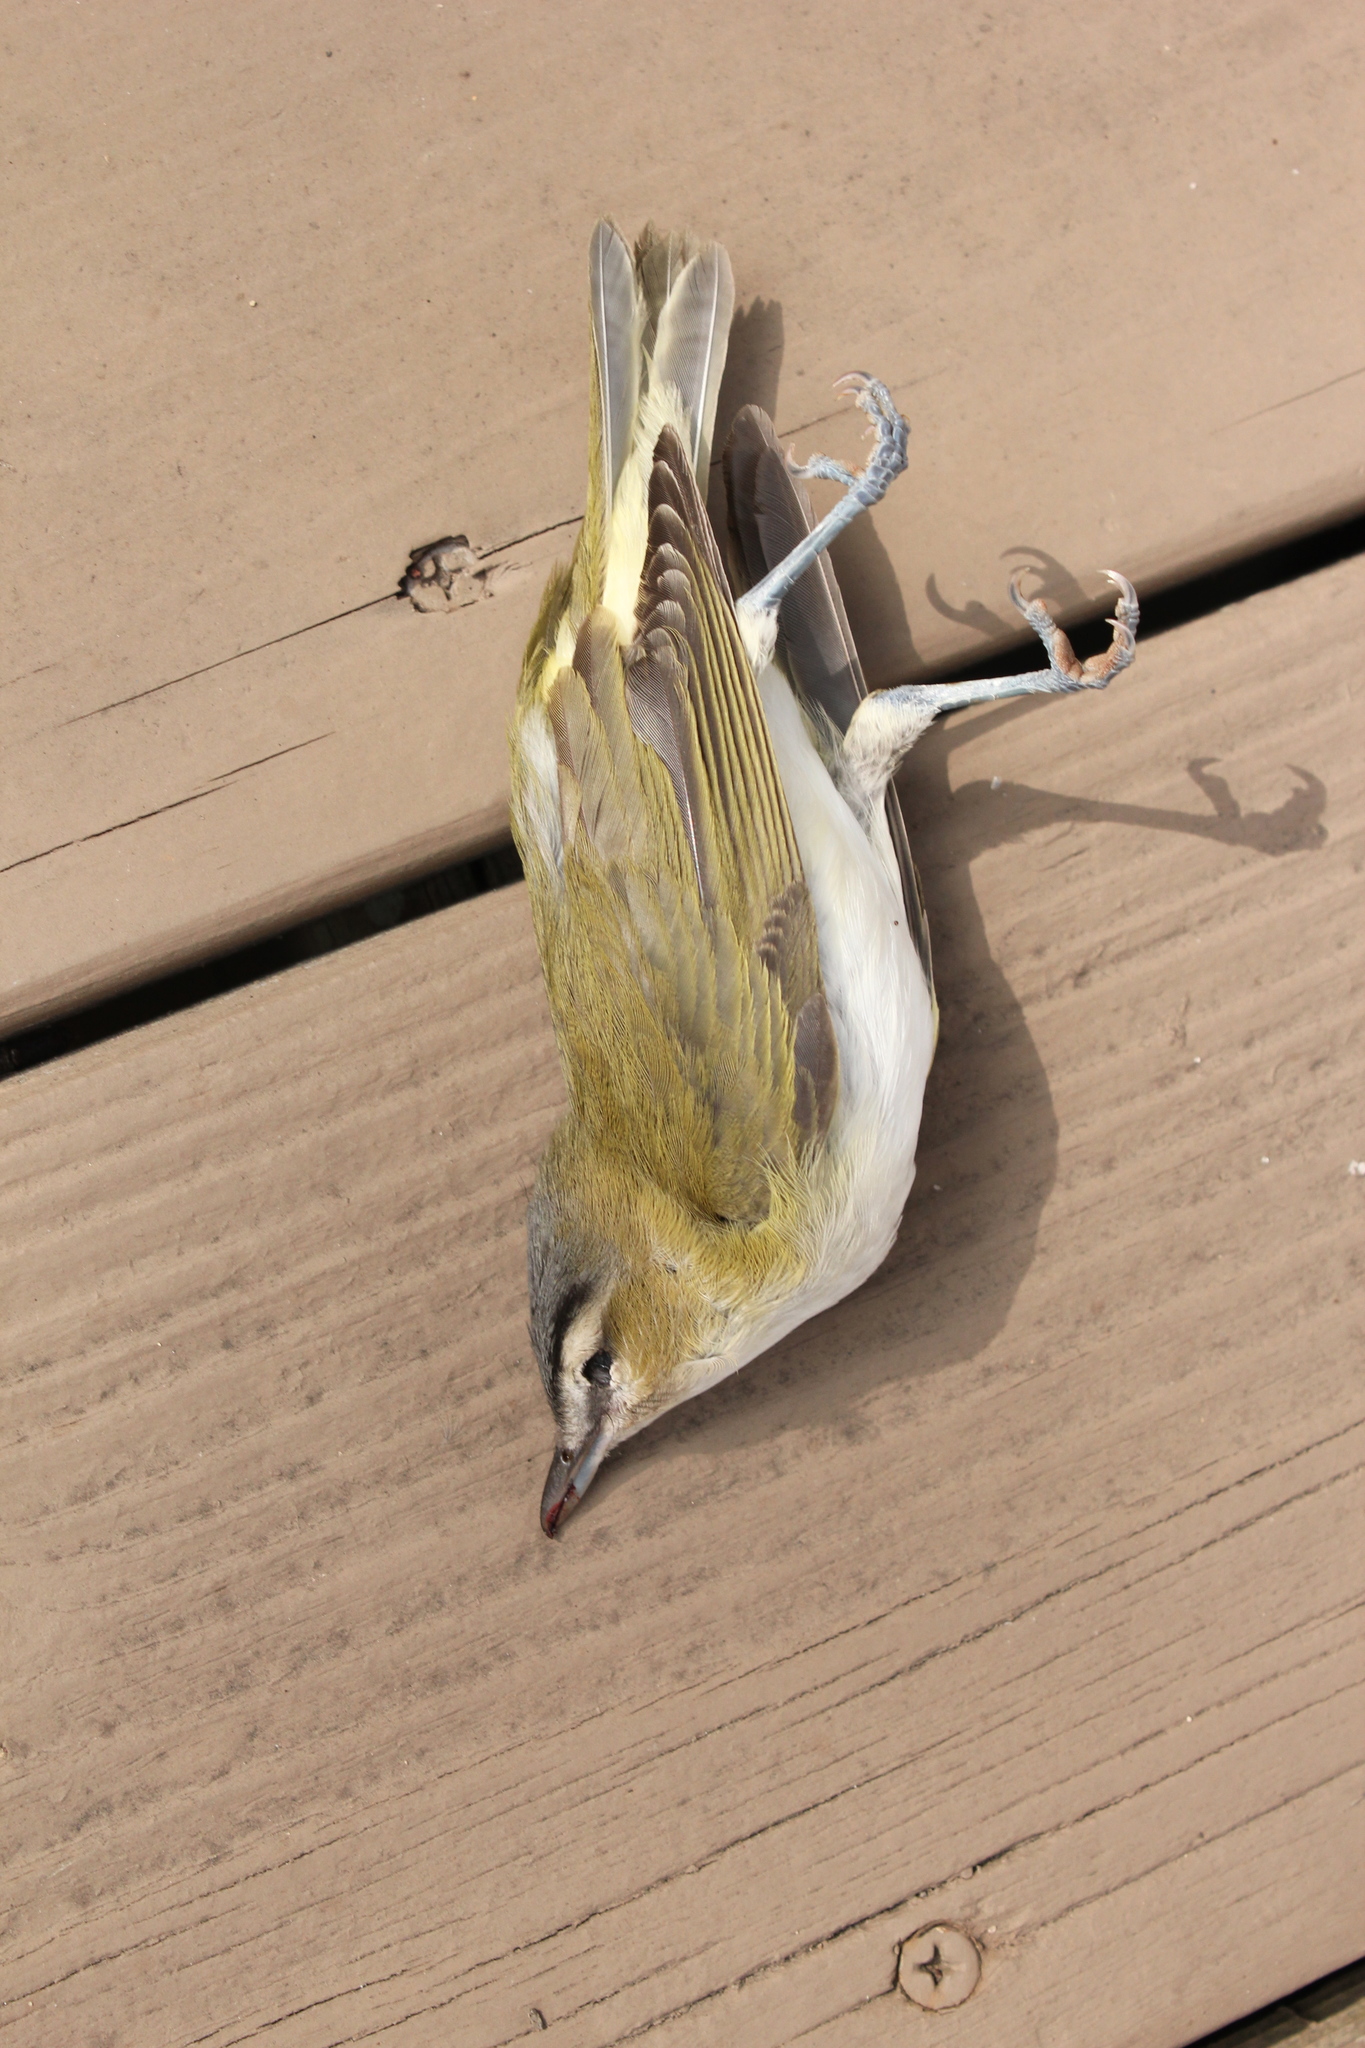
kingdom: Animalia
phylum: Chordata
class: Aves
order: Passeriformes
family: Vireonidae
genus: Vireo
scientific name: Vireo olivaceus
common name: Red-eyed vireo
